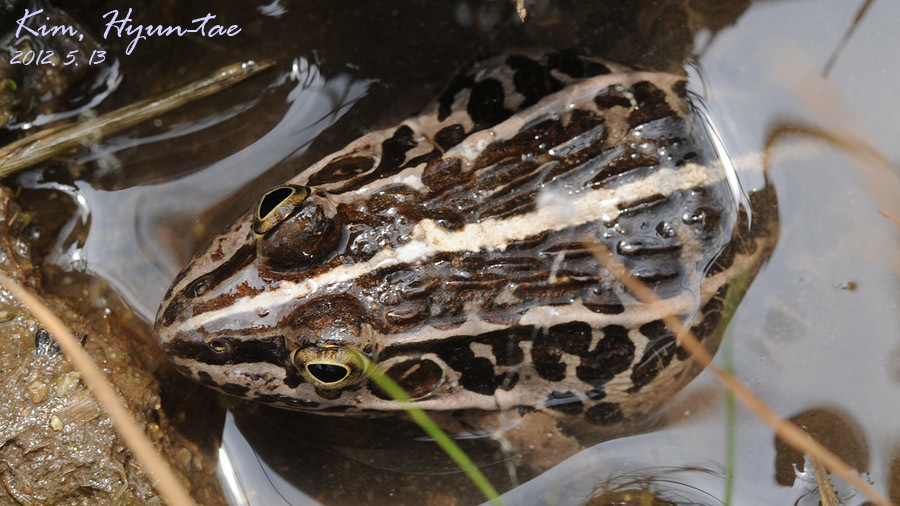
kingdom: Animalia
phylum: Chordata
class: Amphibia
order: Anura
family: Ranidae
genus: Pelophylax
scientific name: Pelophylax nigromaculatus
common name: Black-spotted pond frog
